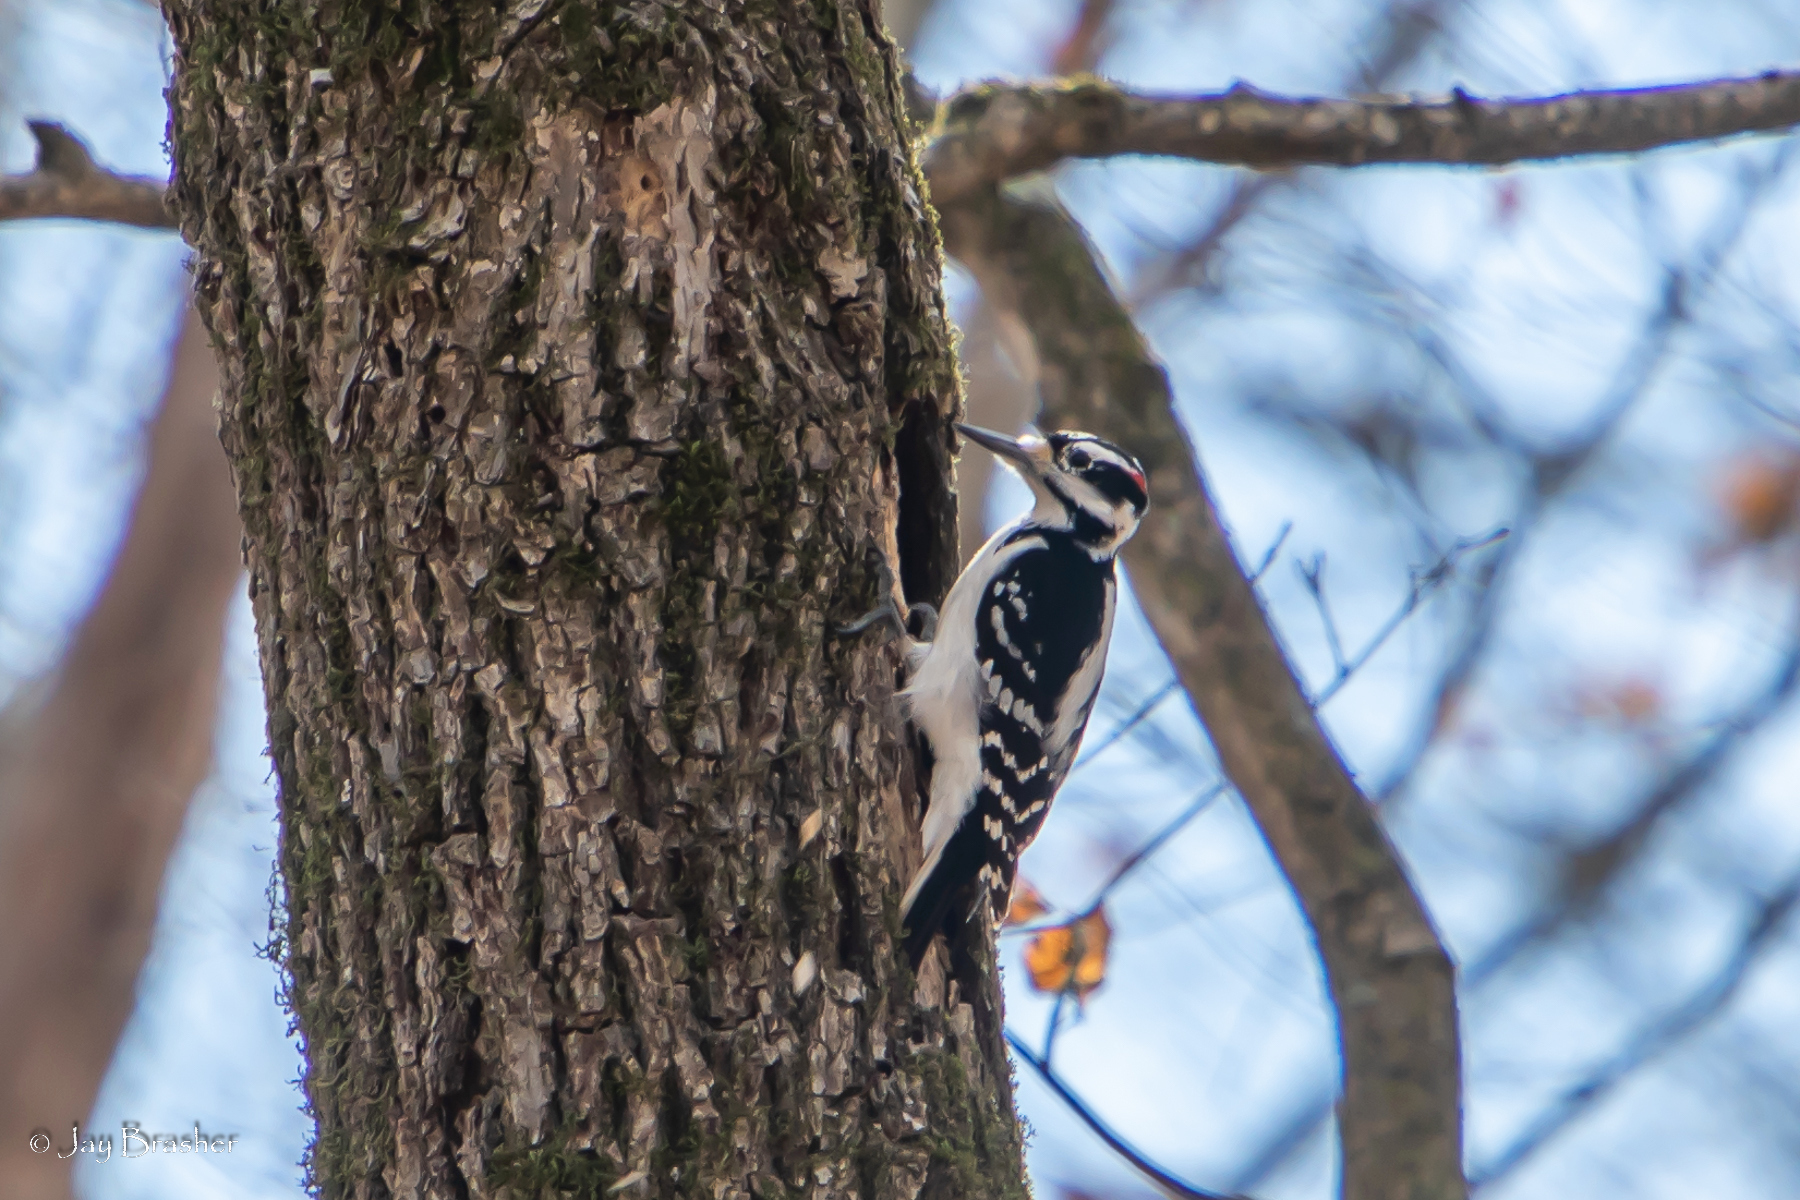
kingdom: Animalia
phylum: Chordata
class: Aves
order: Piciformes
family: Picidae
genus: Leuconotopicus
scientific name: Leuconotopicus villosus
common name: Hairy woodpecker
